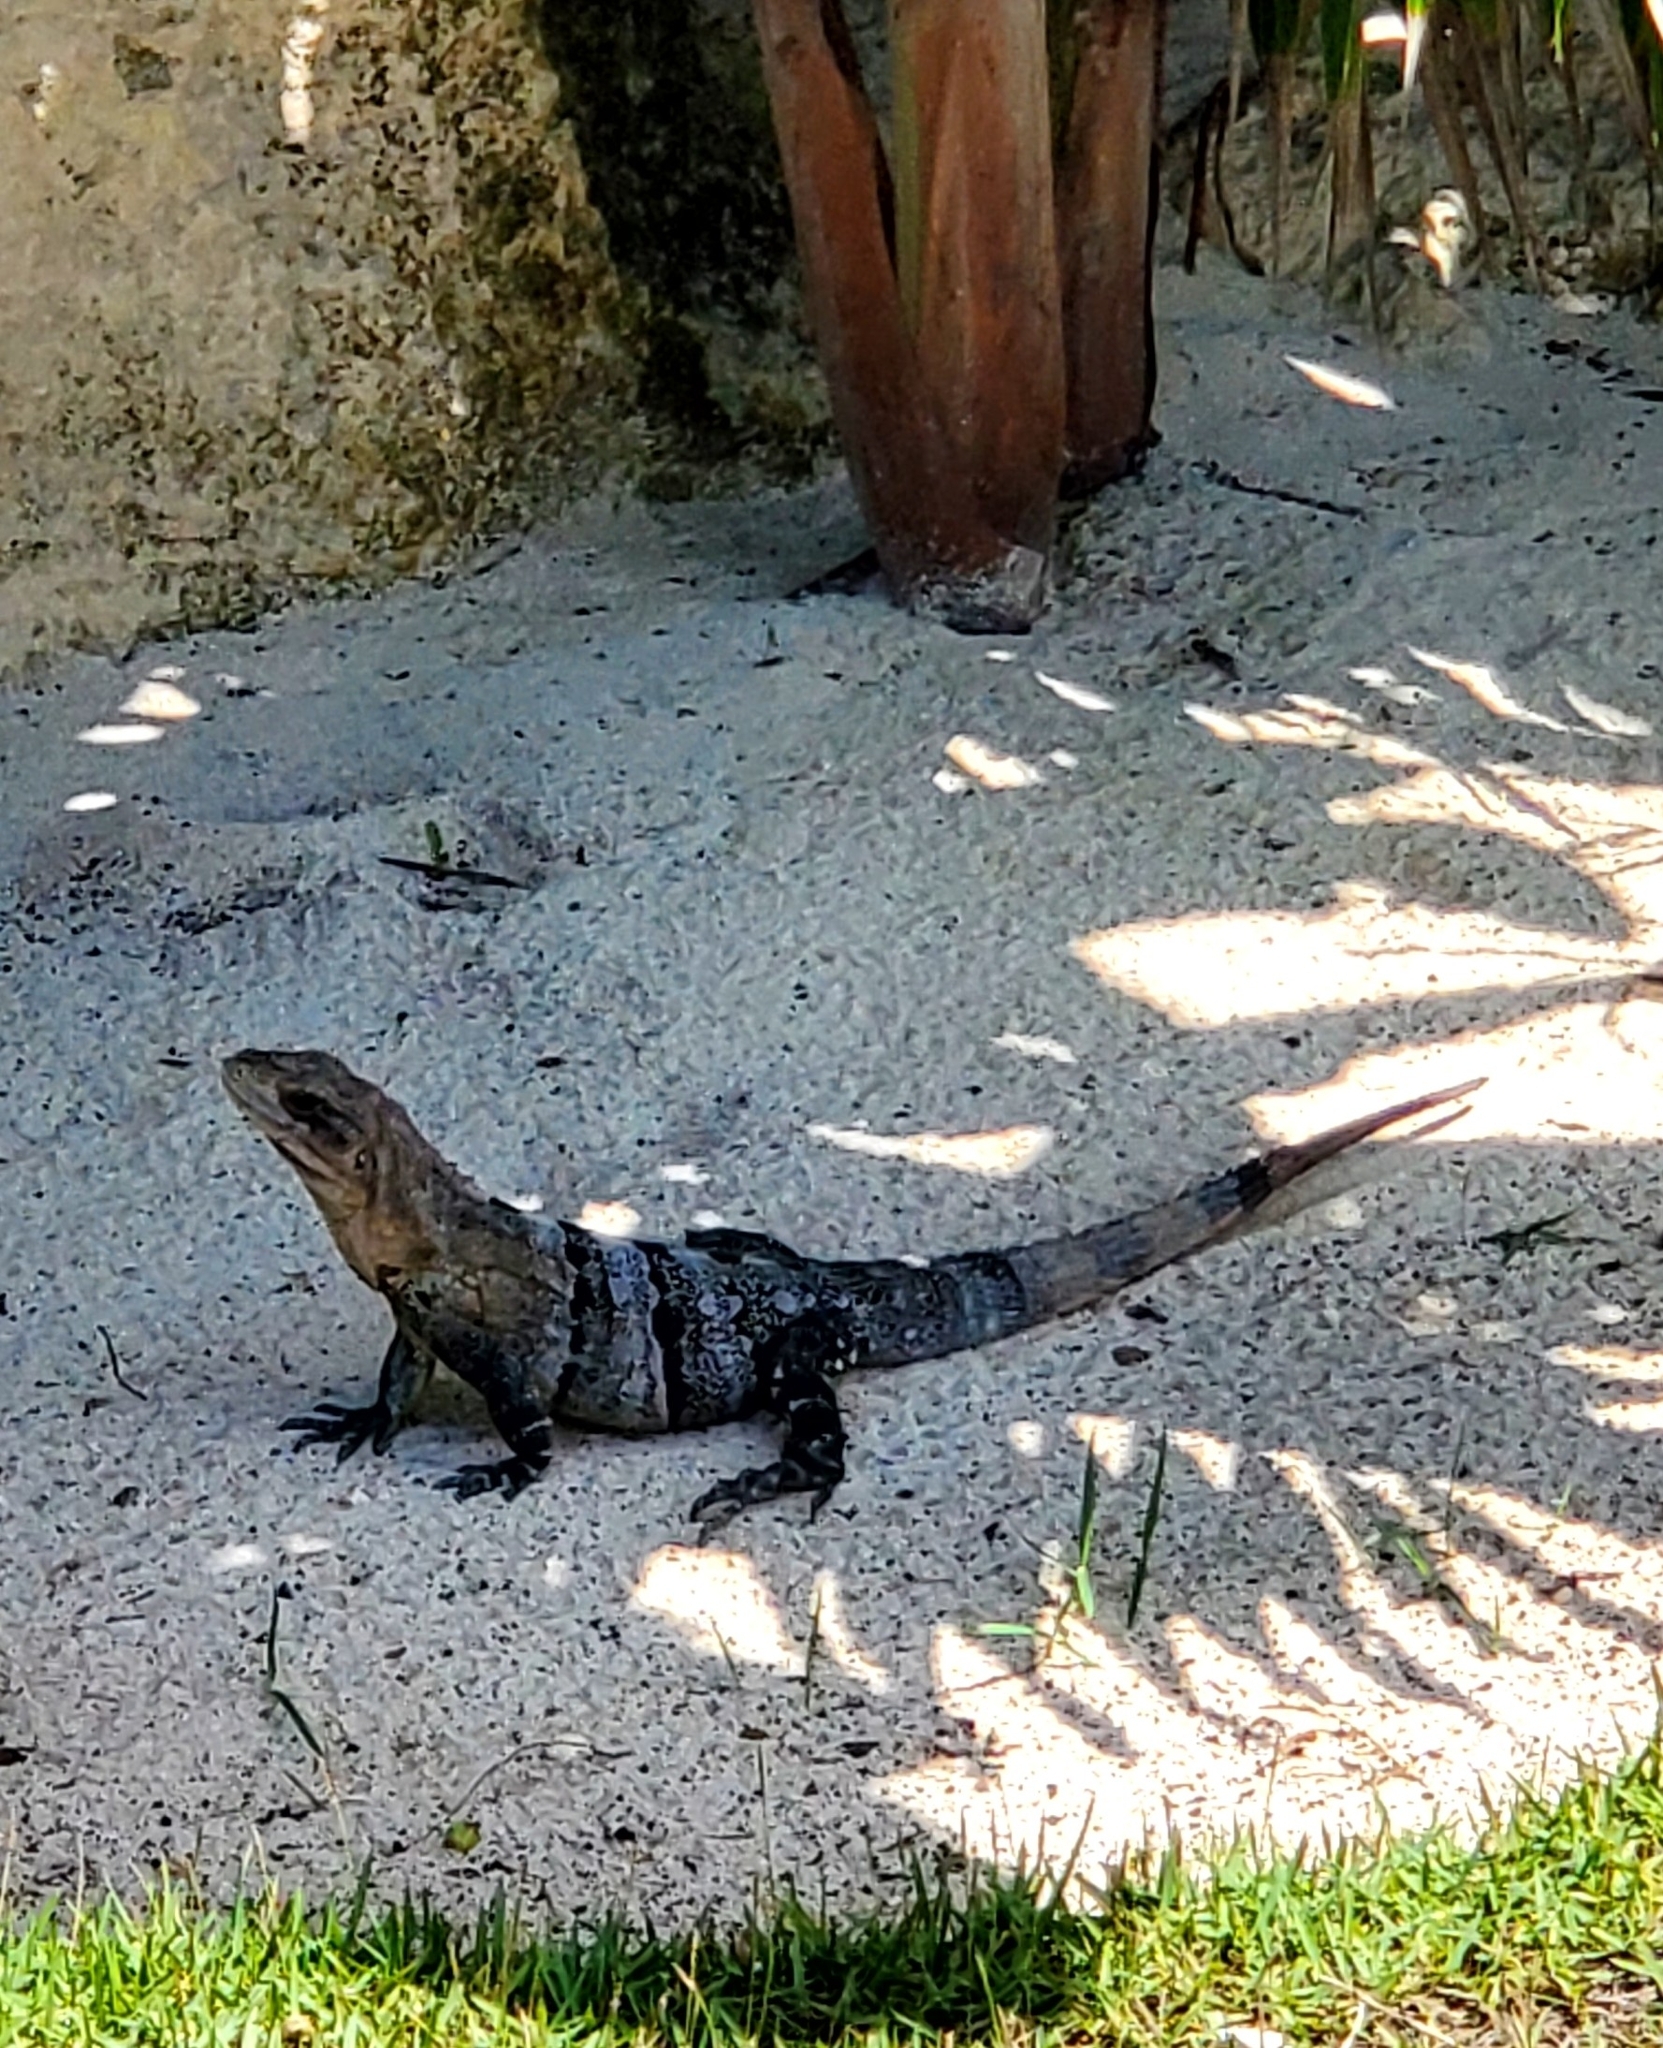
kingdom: Animalia
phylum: Chordata
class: Squamata
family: Iguanidae
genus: Ctenosaura
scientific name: Ctenosaura similis
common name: Black spiny-tailed iguana
